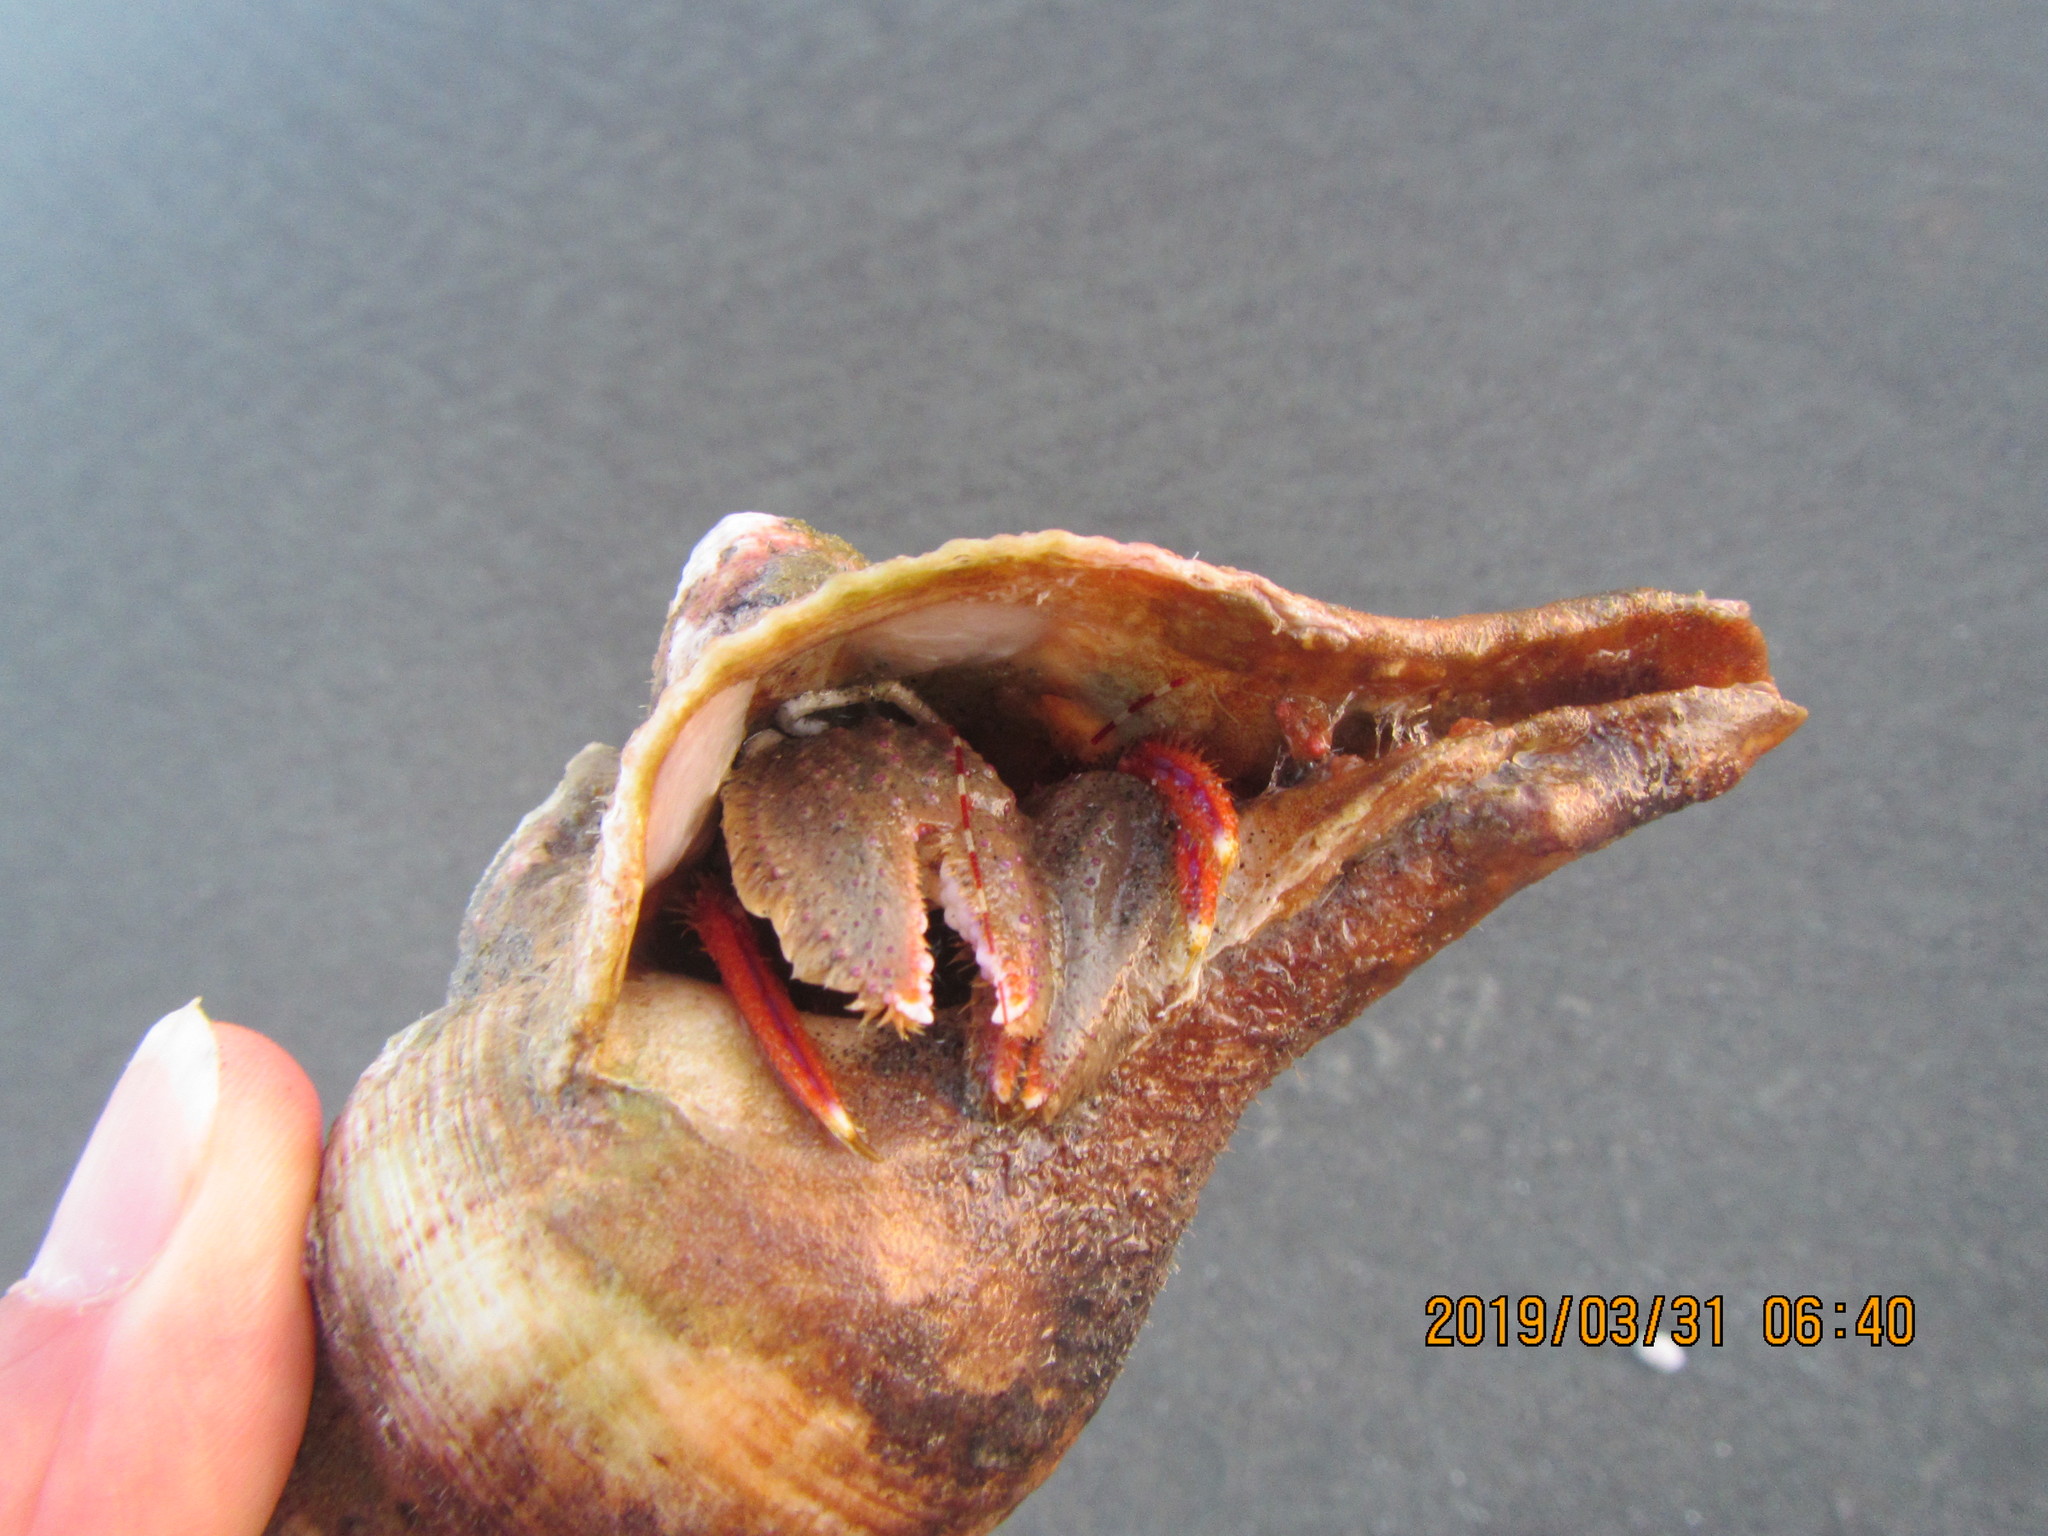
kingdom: Animalia
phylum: Mollusca
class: Gastropoda
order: Neogastropoda
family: Austrosiphonidae
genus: Penion
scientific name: Penion
